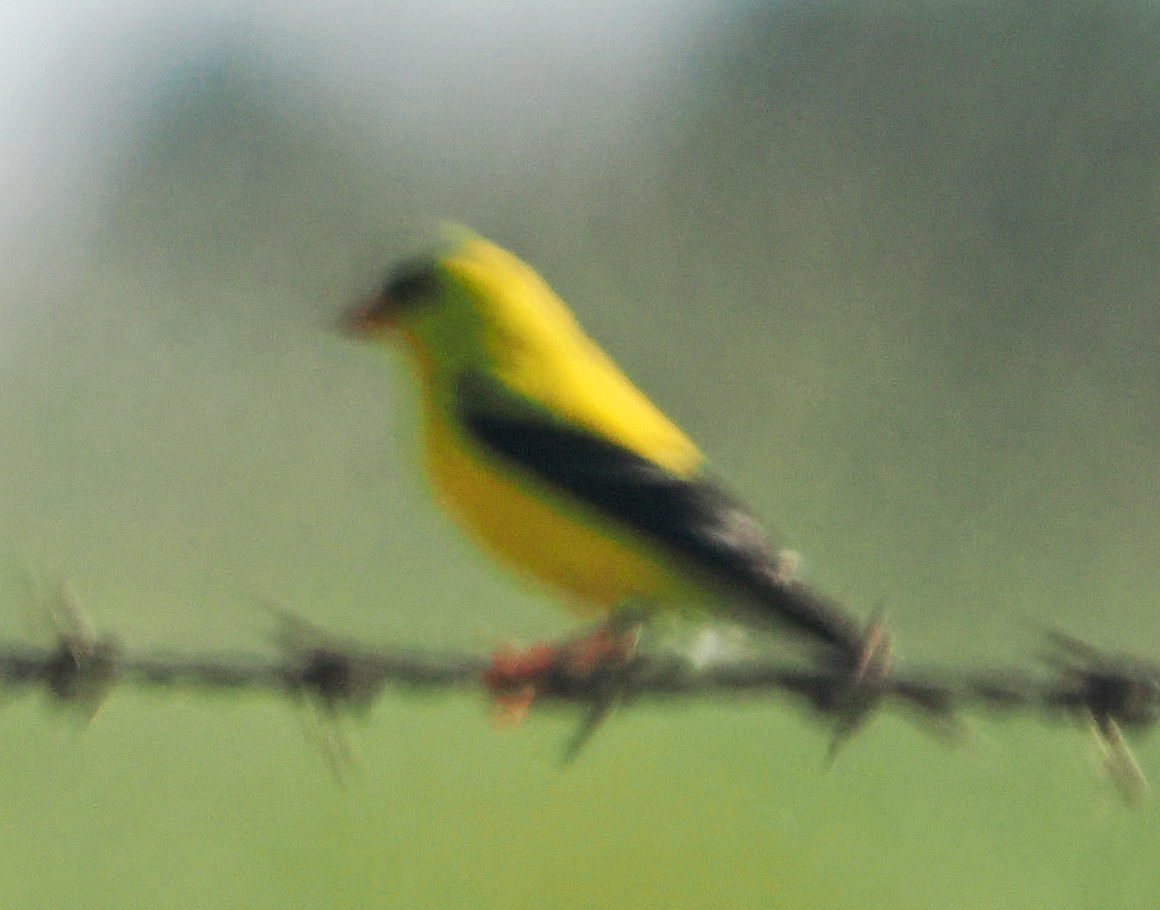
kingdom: Animalia
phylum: Chordata
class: Aves
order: Passeriformes
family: Fringillidae
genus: Spinus
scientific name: Spinus tristis
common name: American goldfinch
